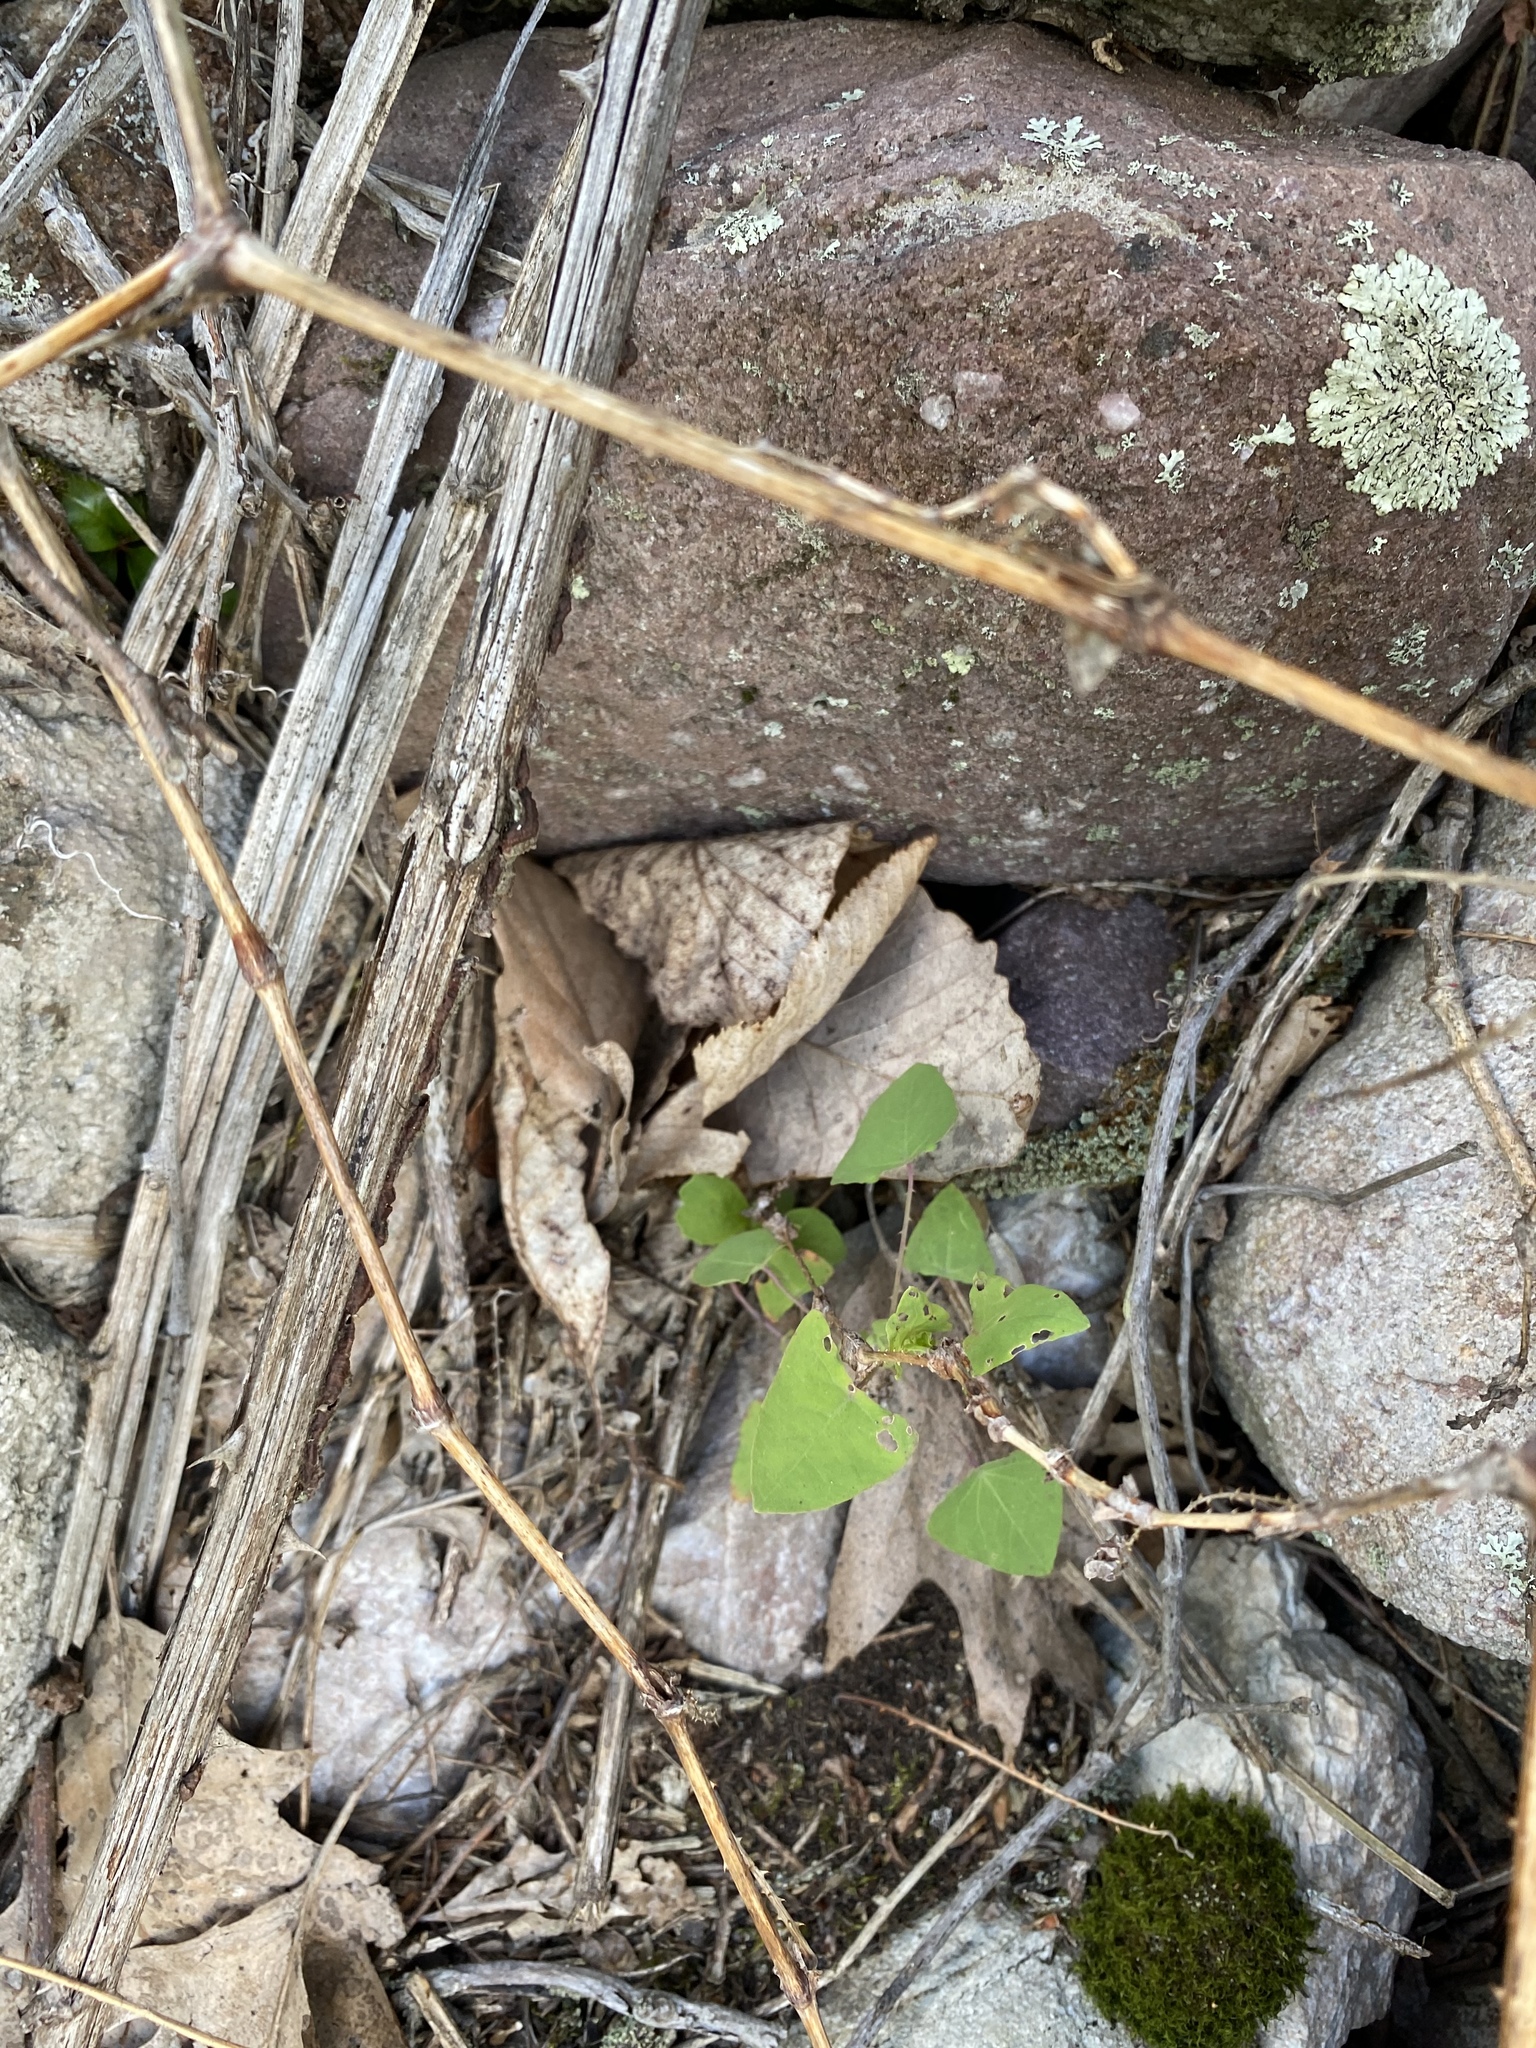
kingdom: Plantae
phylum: Tracheophyta
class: Magnoliopsida
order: Caryophyllales
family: Polygonaceae
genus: Persicaria
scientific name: Persicaria perfoliata
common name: Asiatic tearthumb
